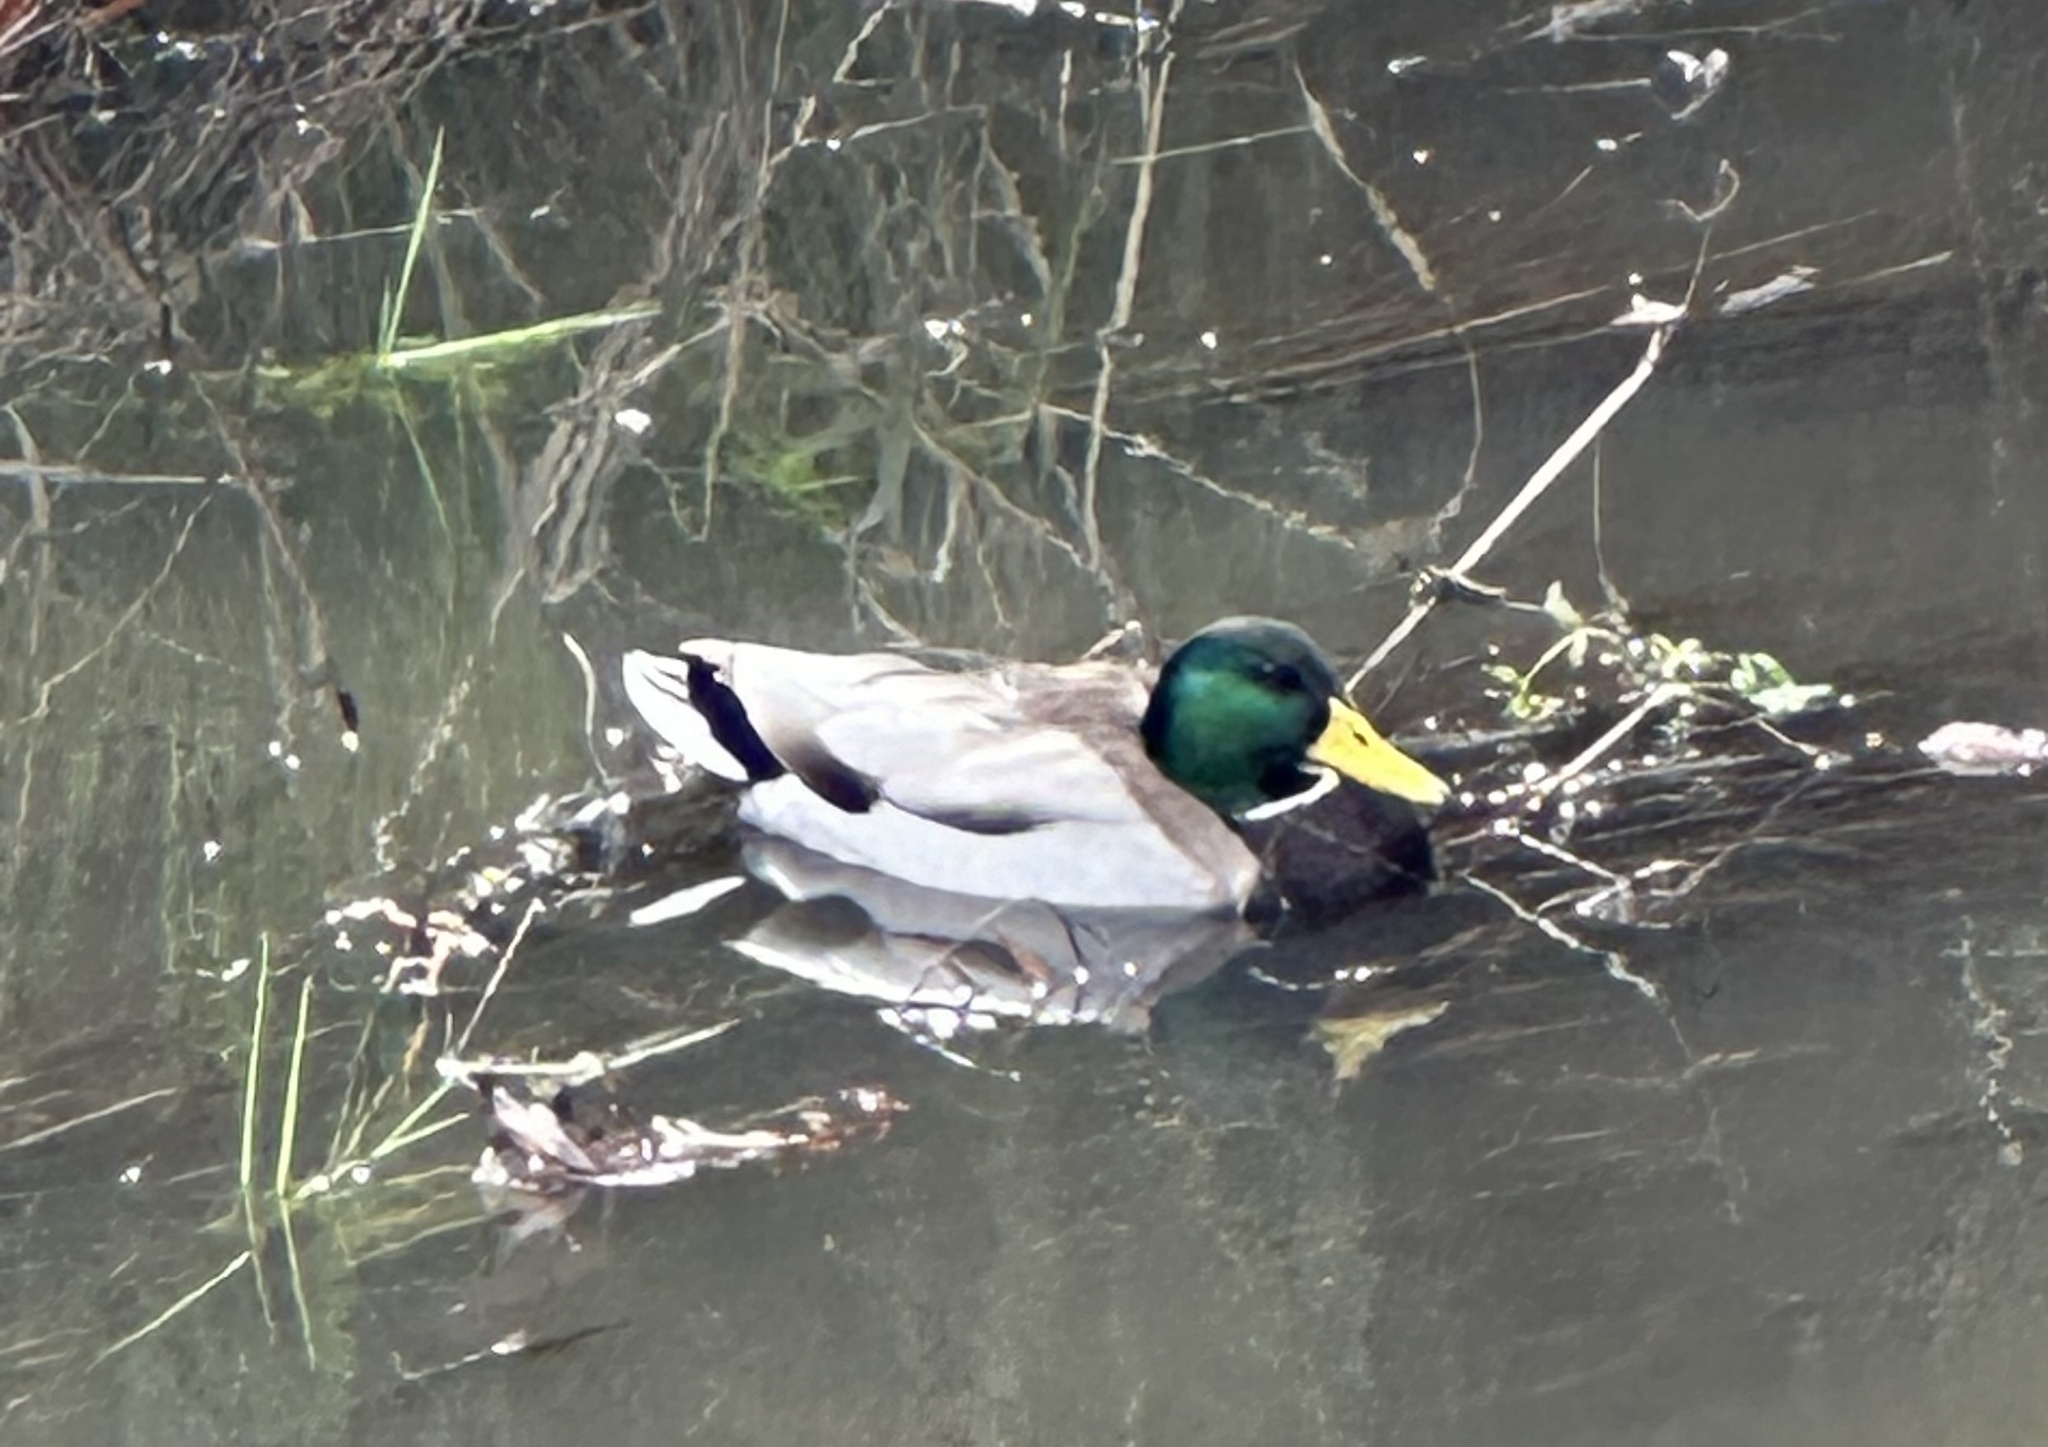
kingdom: Animalia
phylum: Chordata
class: Aves
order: Anseriformes
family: Anatidae
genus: Anas
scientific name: Anas platyrhynchos
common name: Mallard
